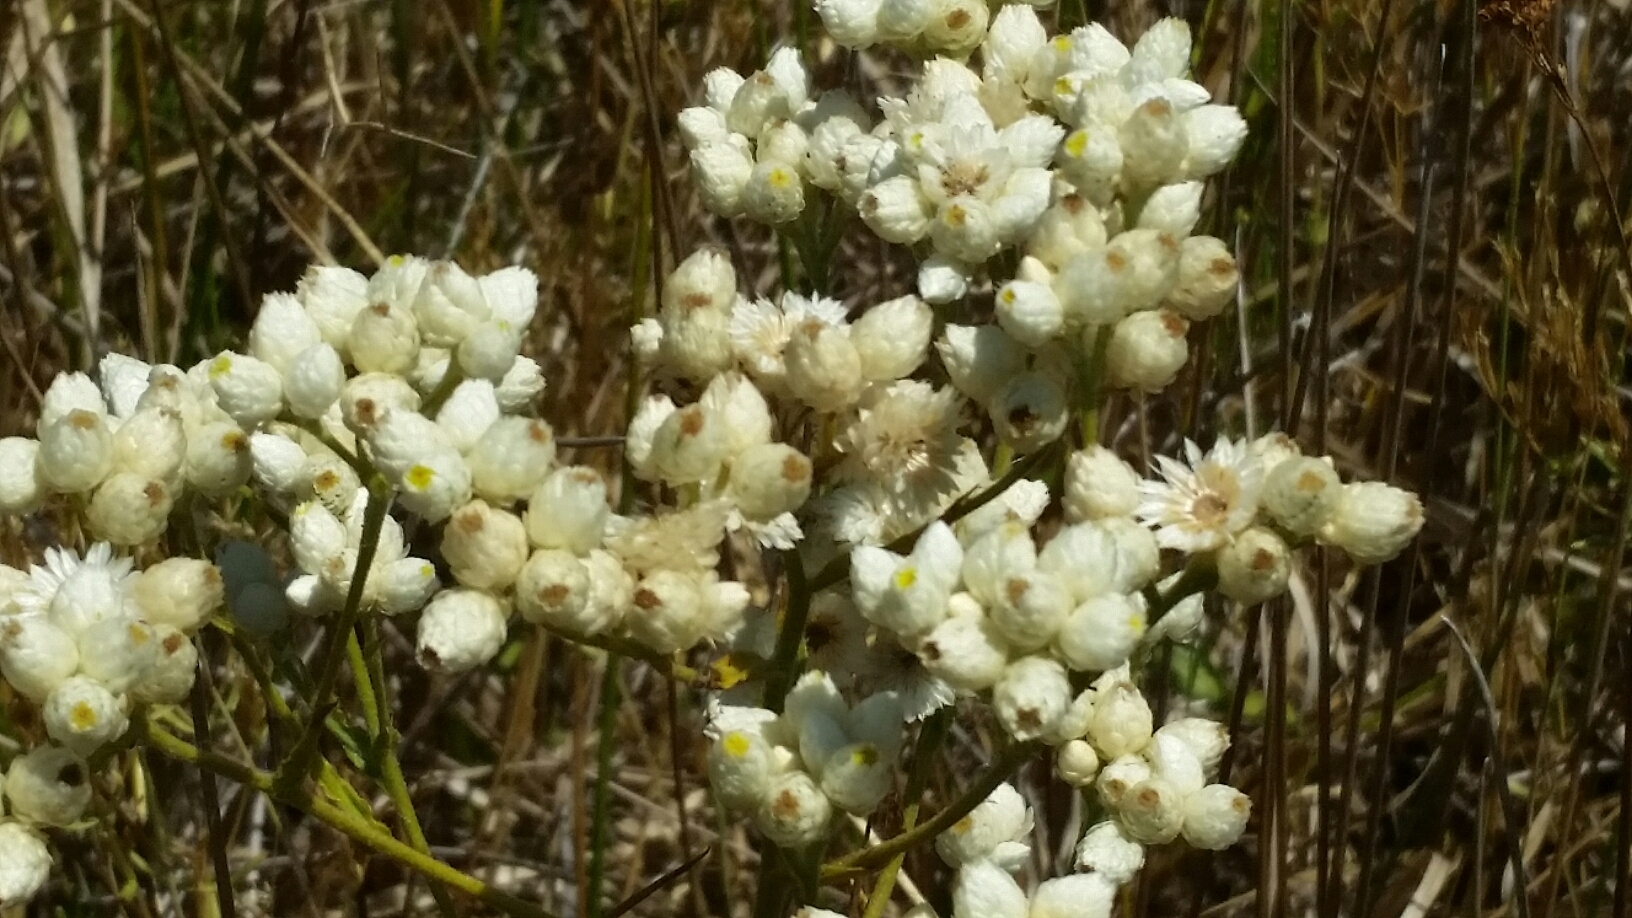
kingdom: Plantae
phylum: Tracheophyta
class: Magnoliopsida
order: Asterales
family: Asteraceae
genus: Pseudognaphalium
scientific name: Pseudognaphalium californicum
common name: California rabbit-tobacco
